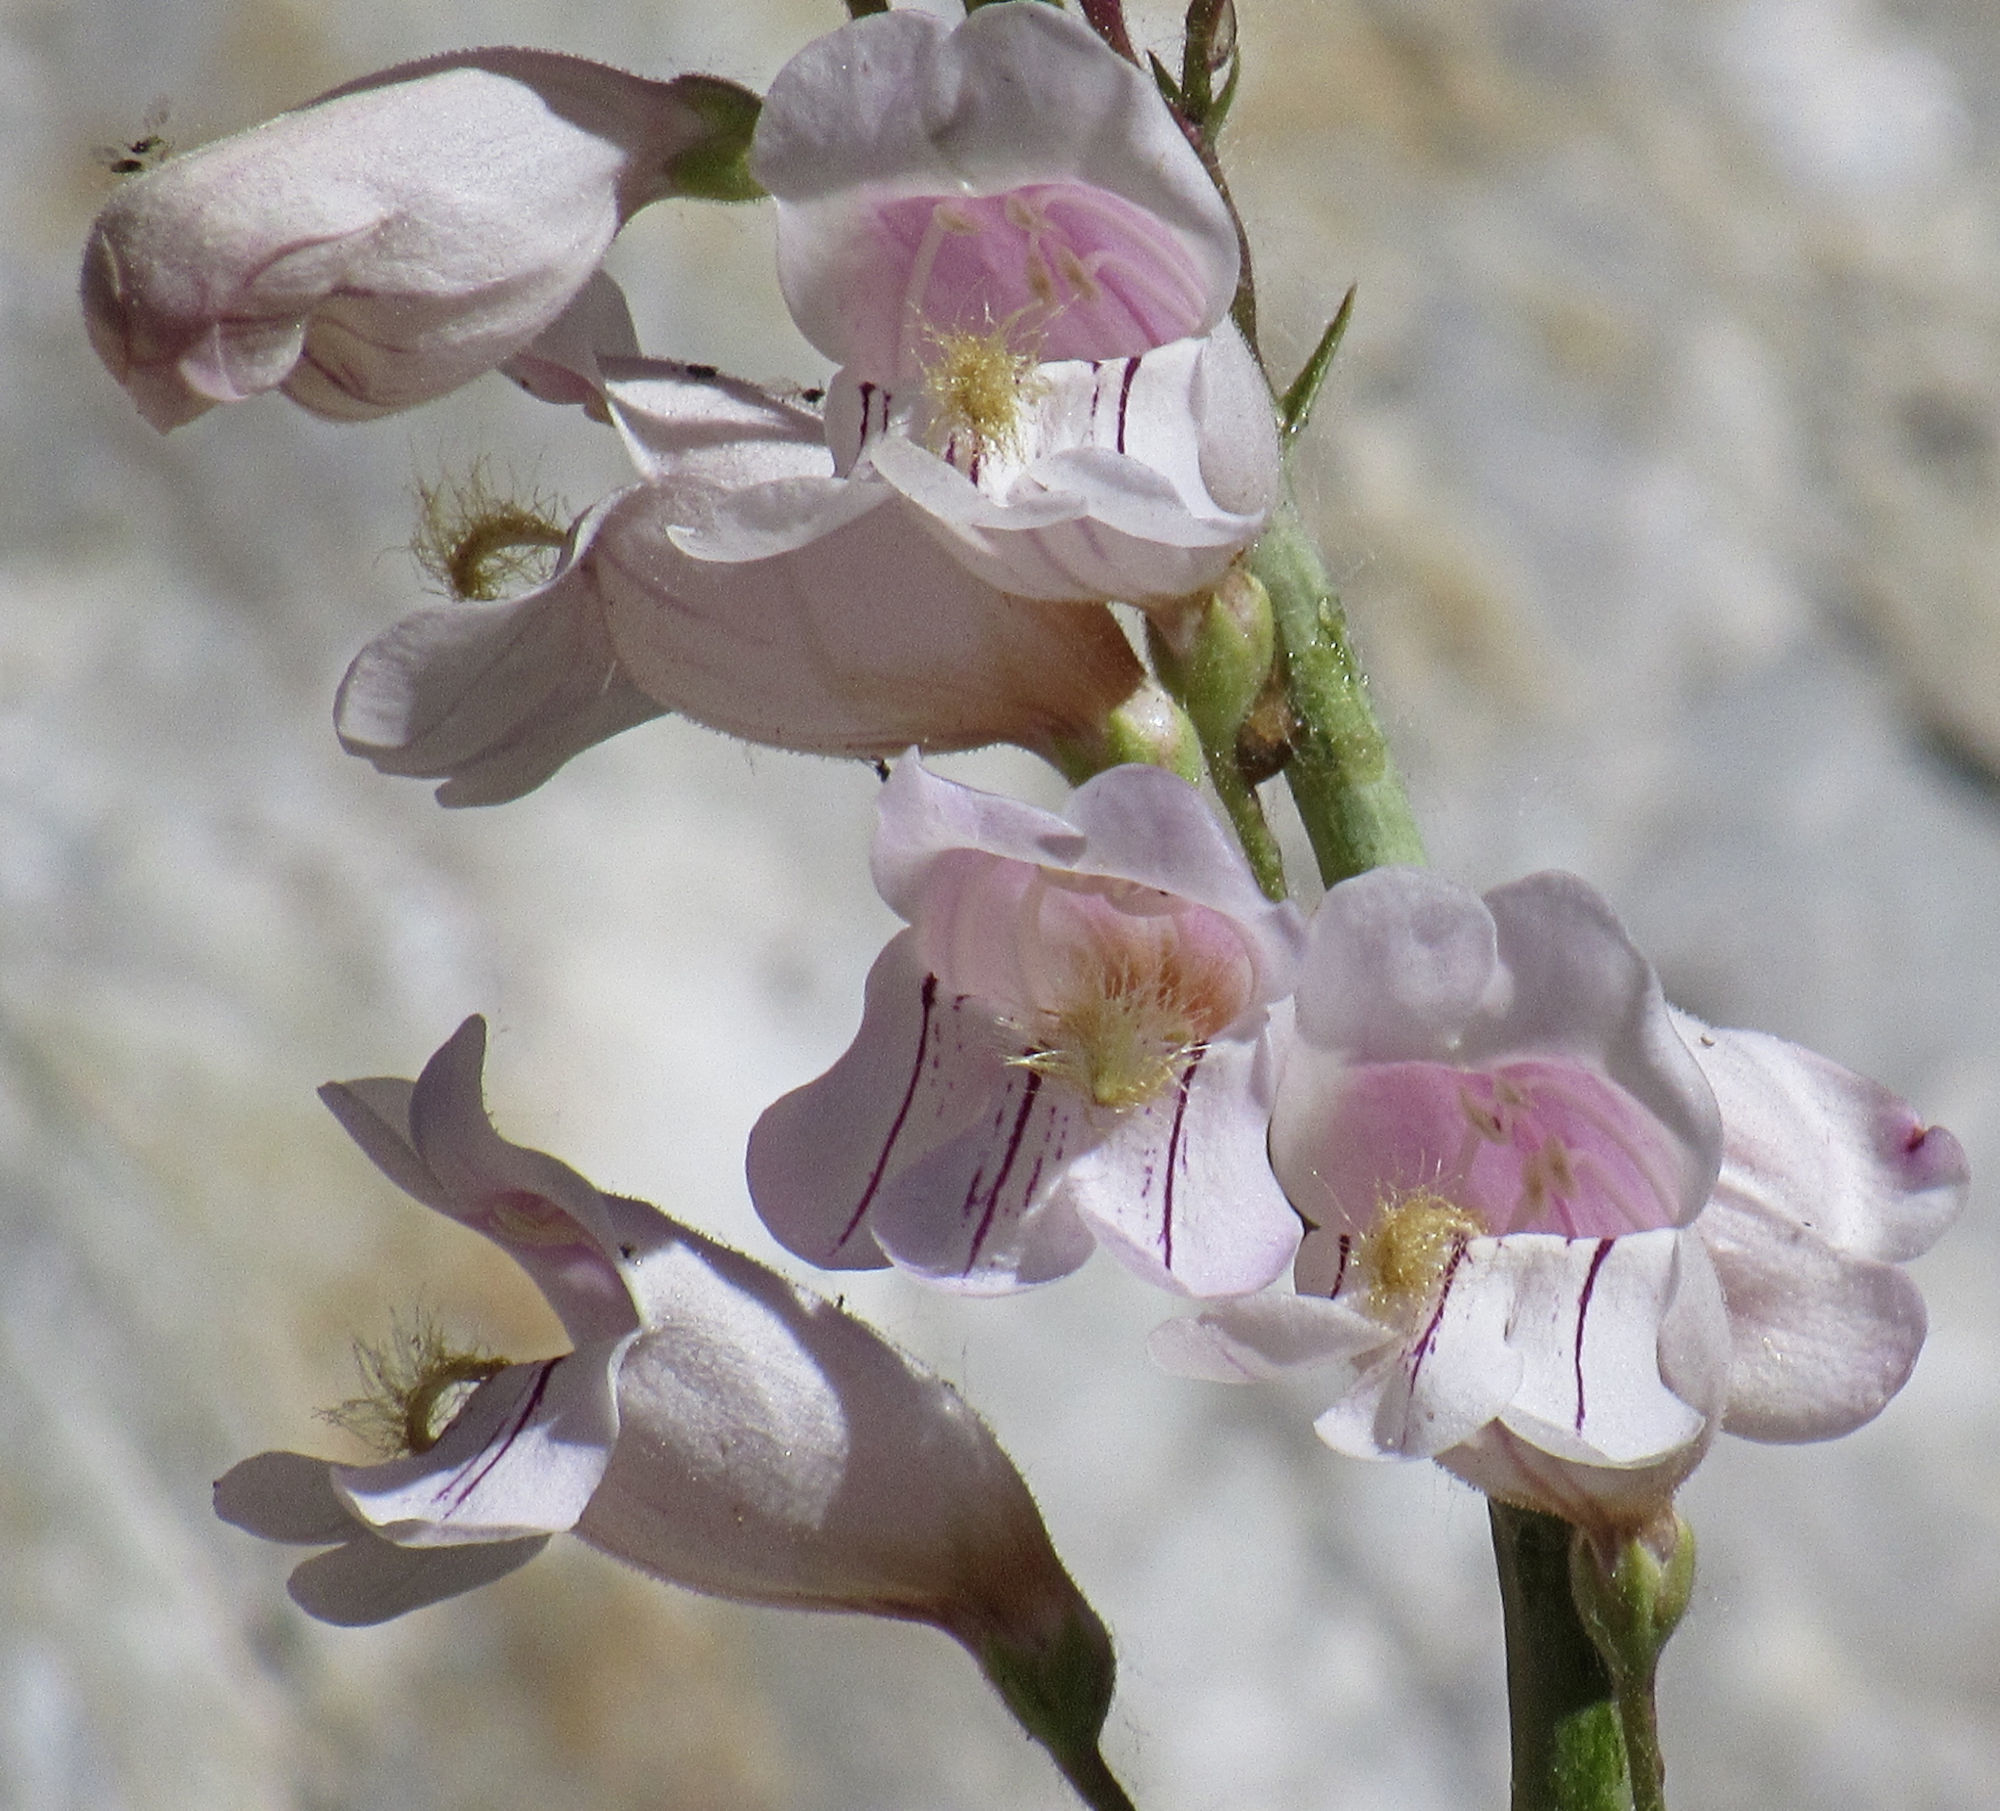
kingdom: Plantae
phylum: Tracheophyta
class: Magnoliopsida
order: Lamiales
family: Plantaginaceae
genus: Penstemon
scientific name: Penstemon palmeri
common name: Palmer penstemon
